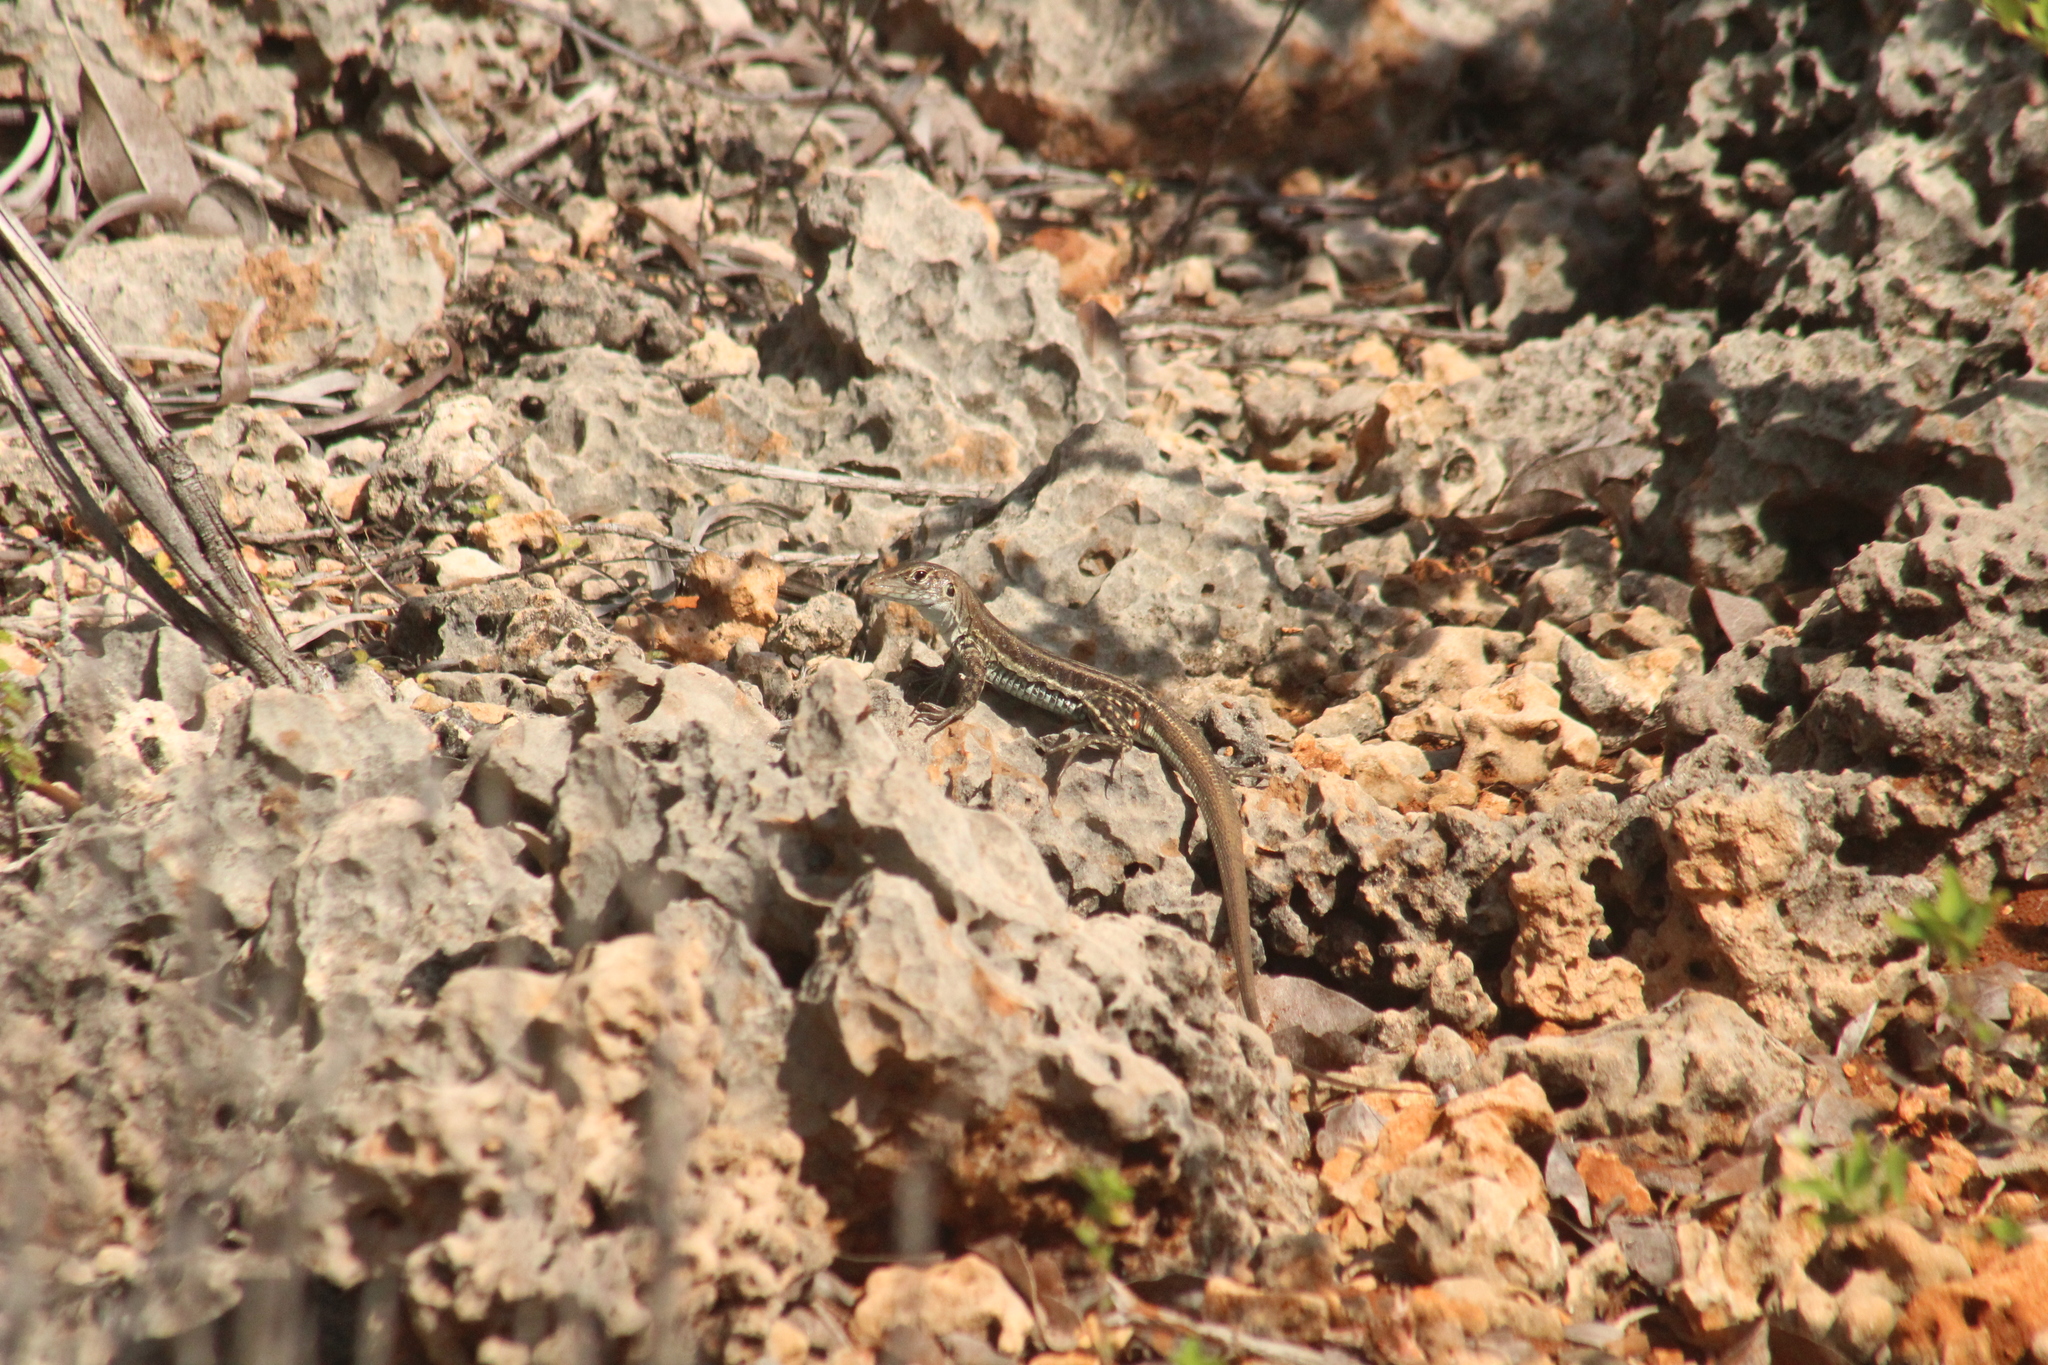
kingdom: Animalia
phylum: Chordata
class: Squamata
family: Teiidae
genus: Pholidoscelis
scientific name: Pholidoscelis plei
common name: Anguilla bank ameiva
